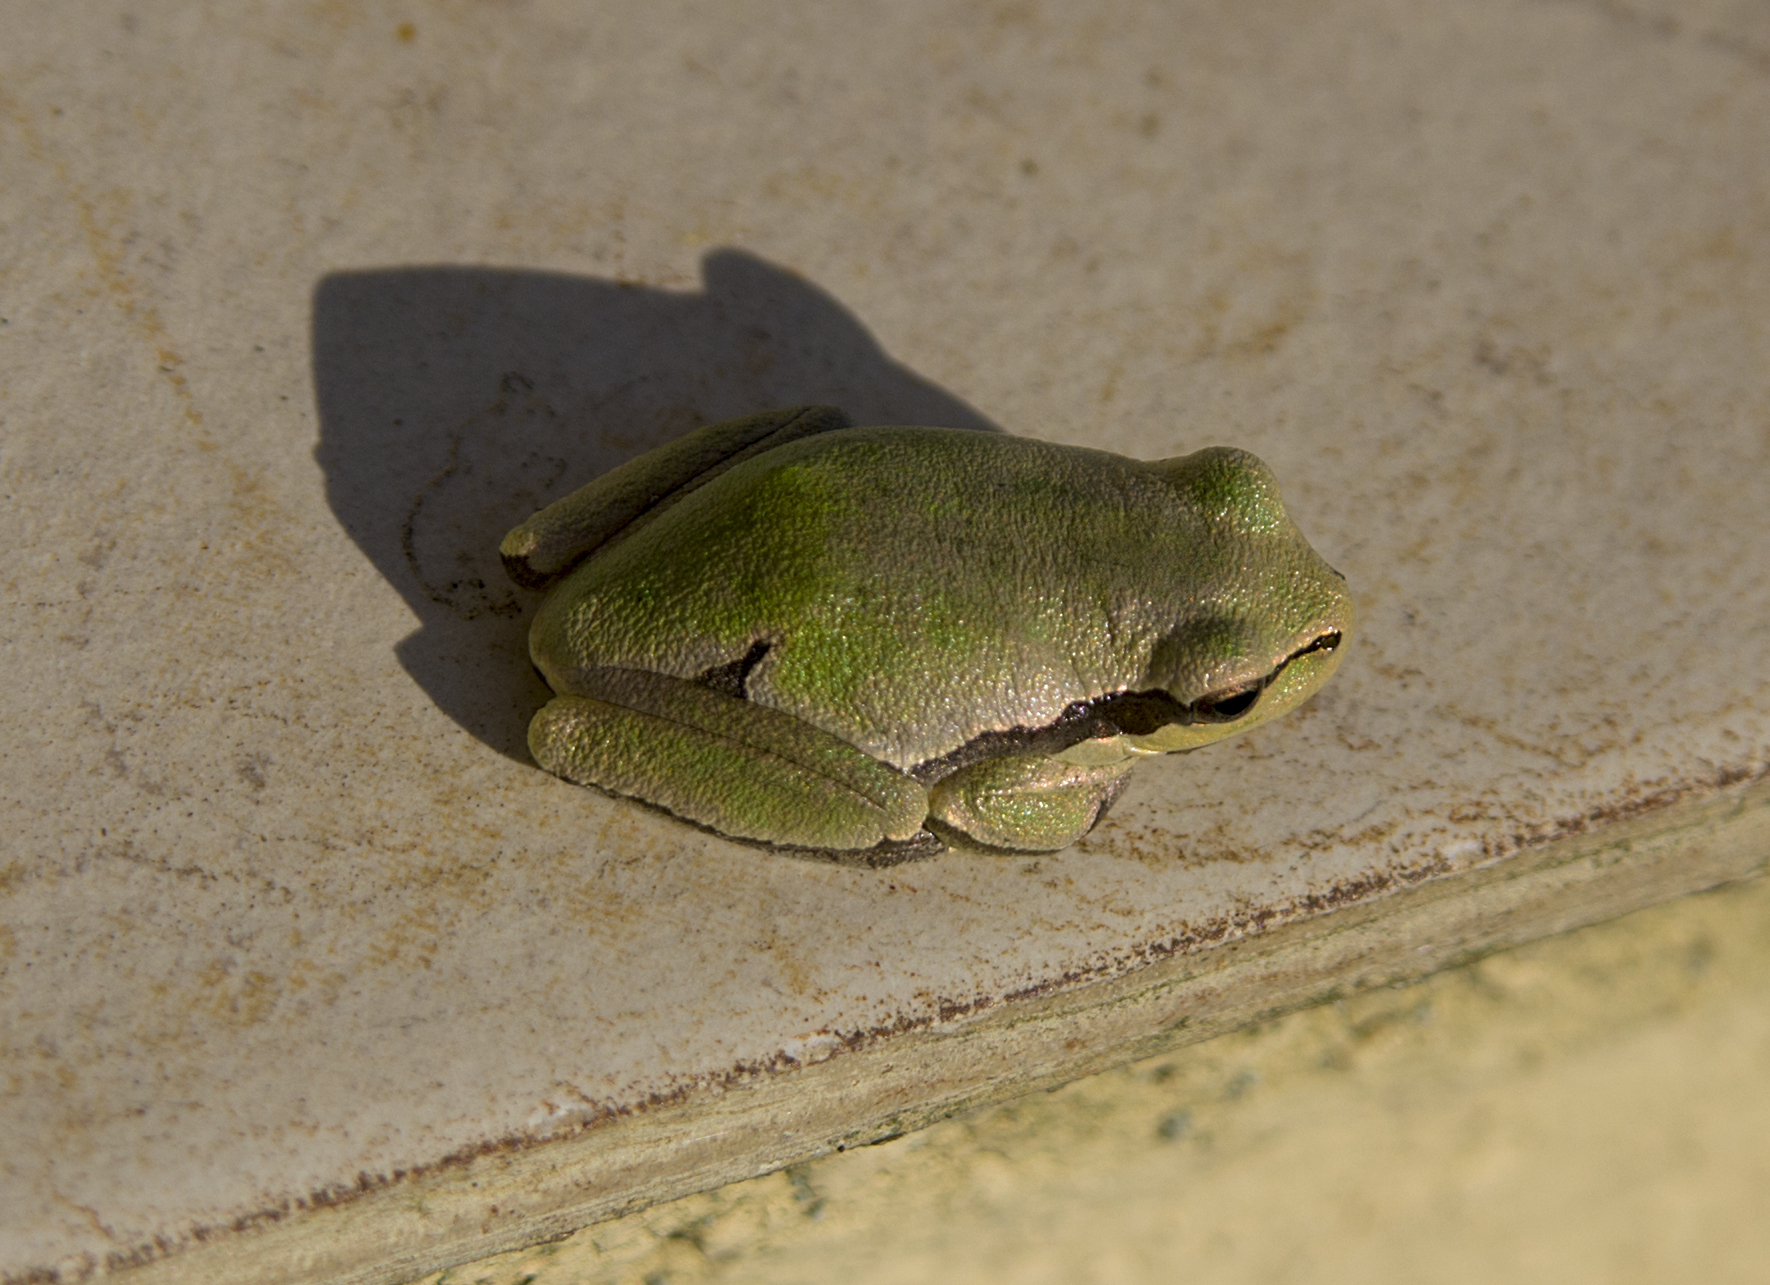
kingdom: Animalia
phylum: Chordata
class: Amphibia
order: Anura
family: Hylidae
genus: Hyla
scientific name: Hyla orientalis
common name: Caucasian treefrog
